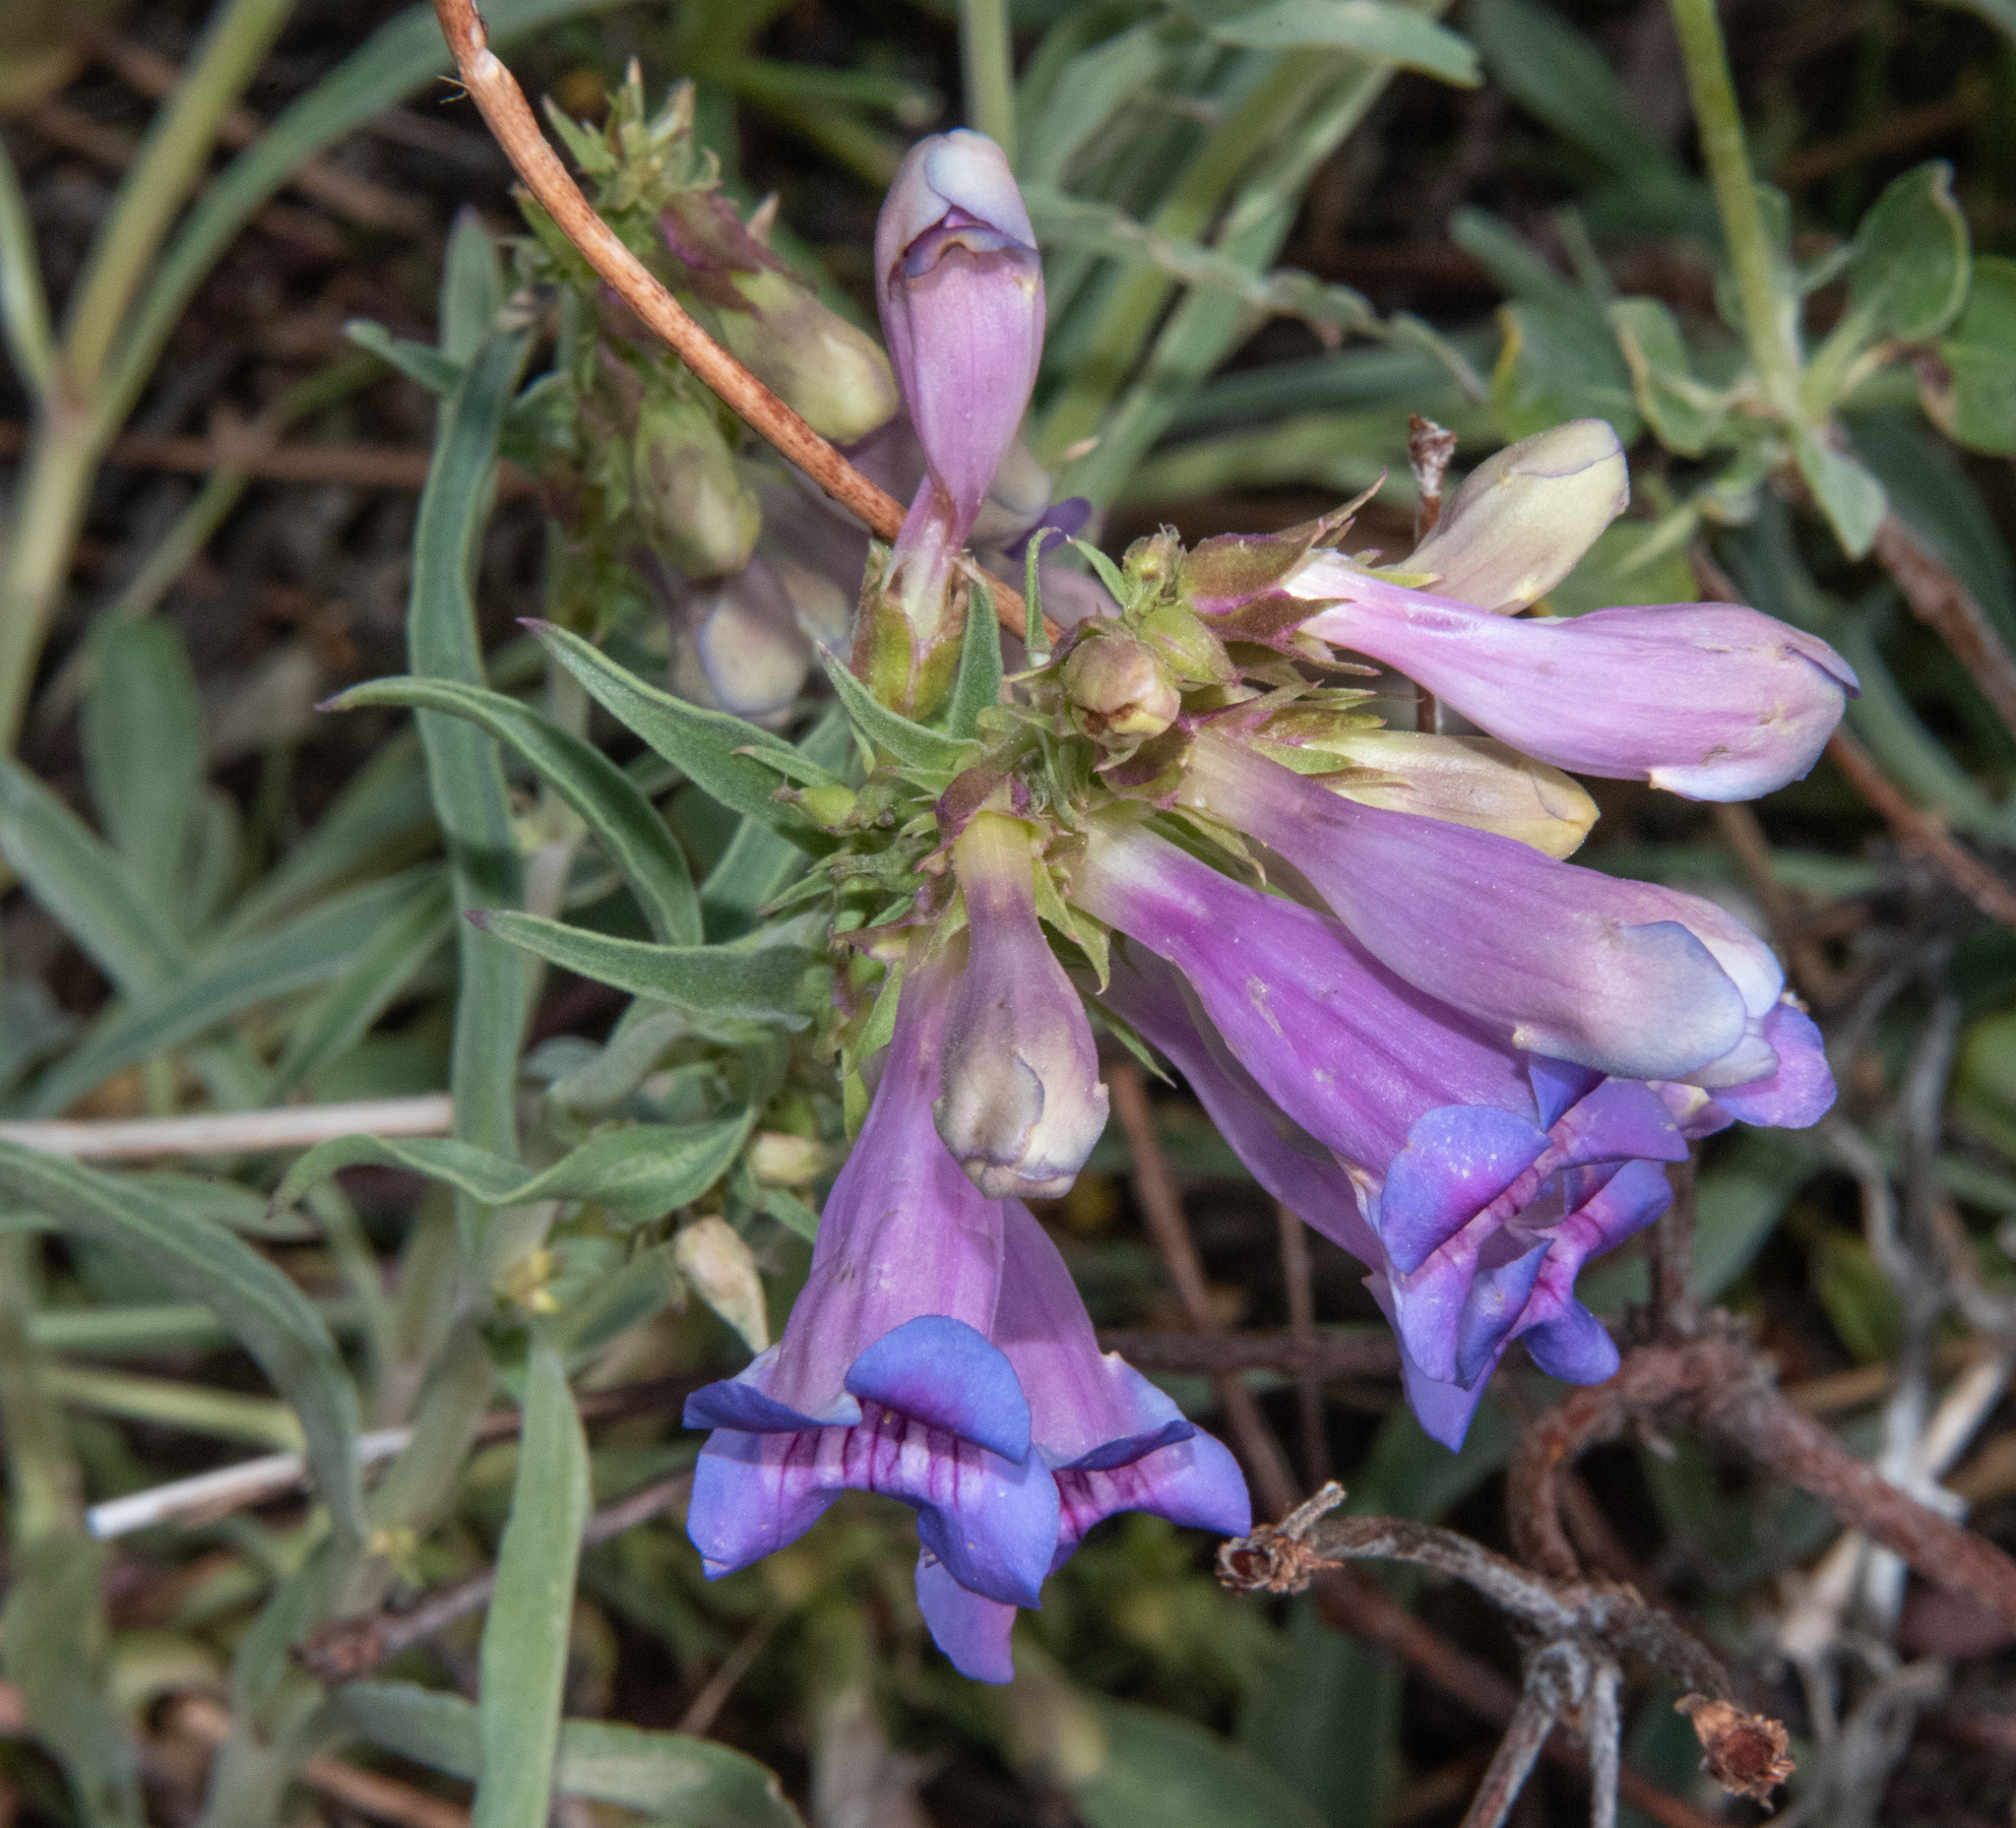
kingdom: Plantae
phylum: Tracheophyta
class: Magnoliopsida
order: Lamiales
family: Plantaginaceae
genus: Penstemon
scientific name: Penstemon speciosus
